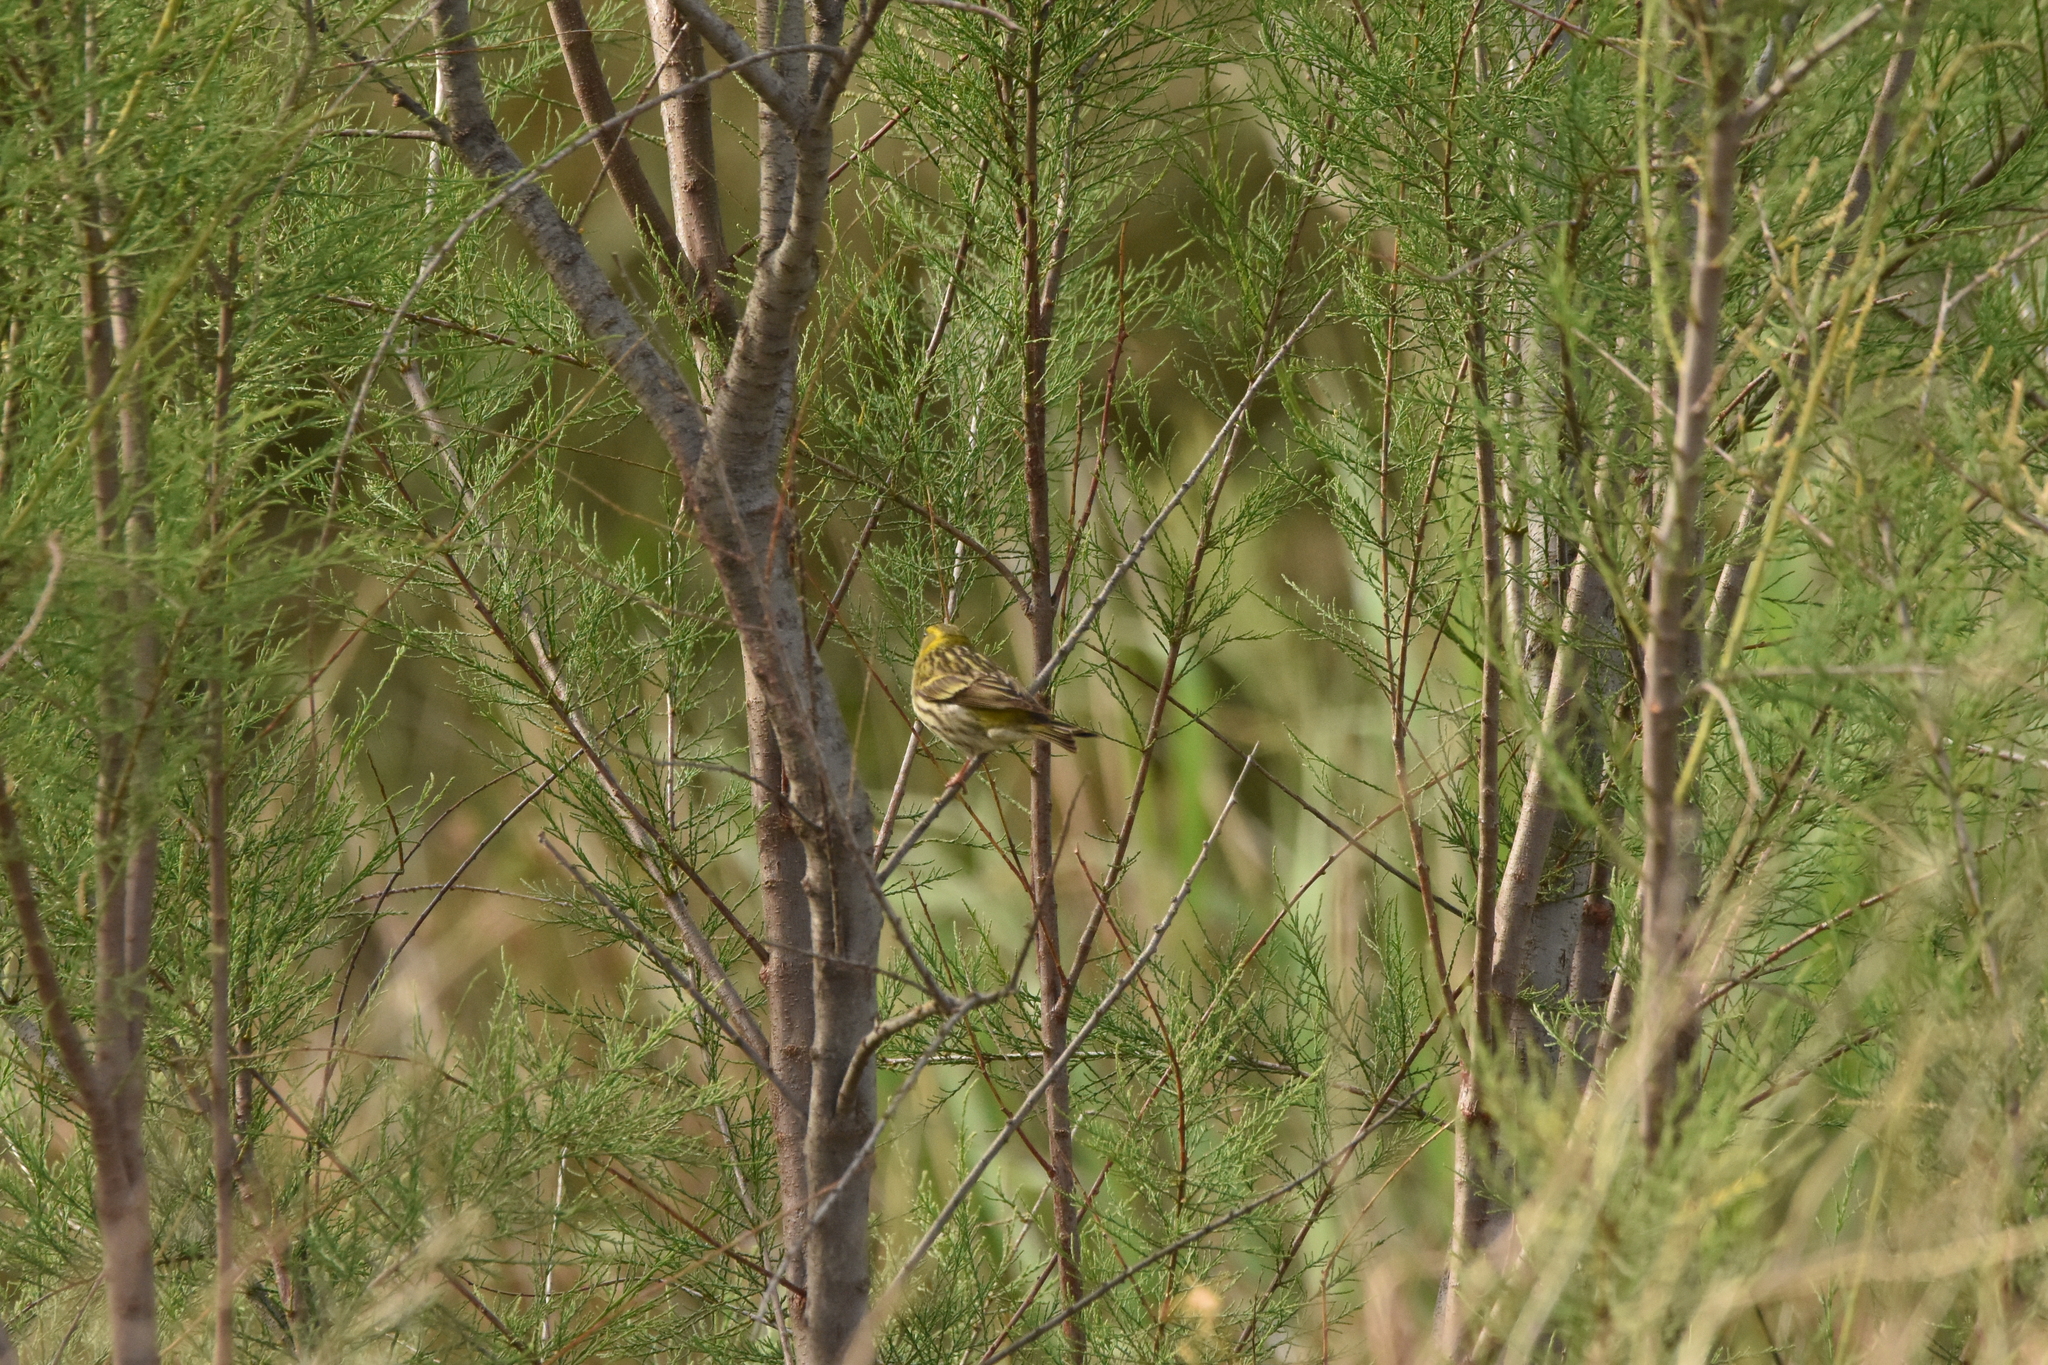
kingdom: Animalia
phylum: Chordata
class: Aves
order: Passeriformes
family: Fringillidae
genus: Serinus
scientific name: Serinus serinus
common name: European serin
